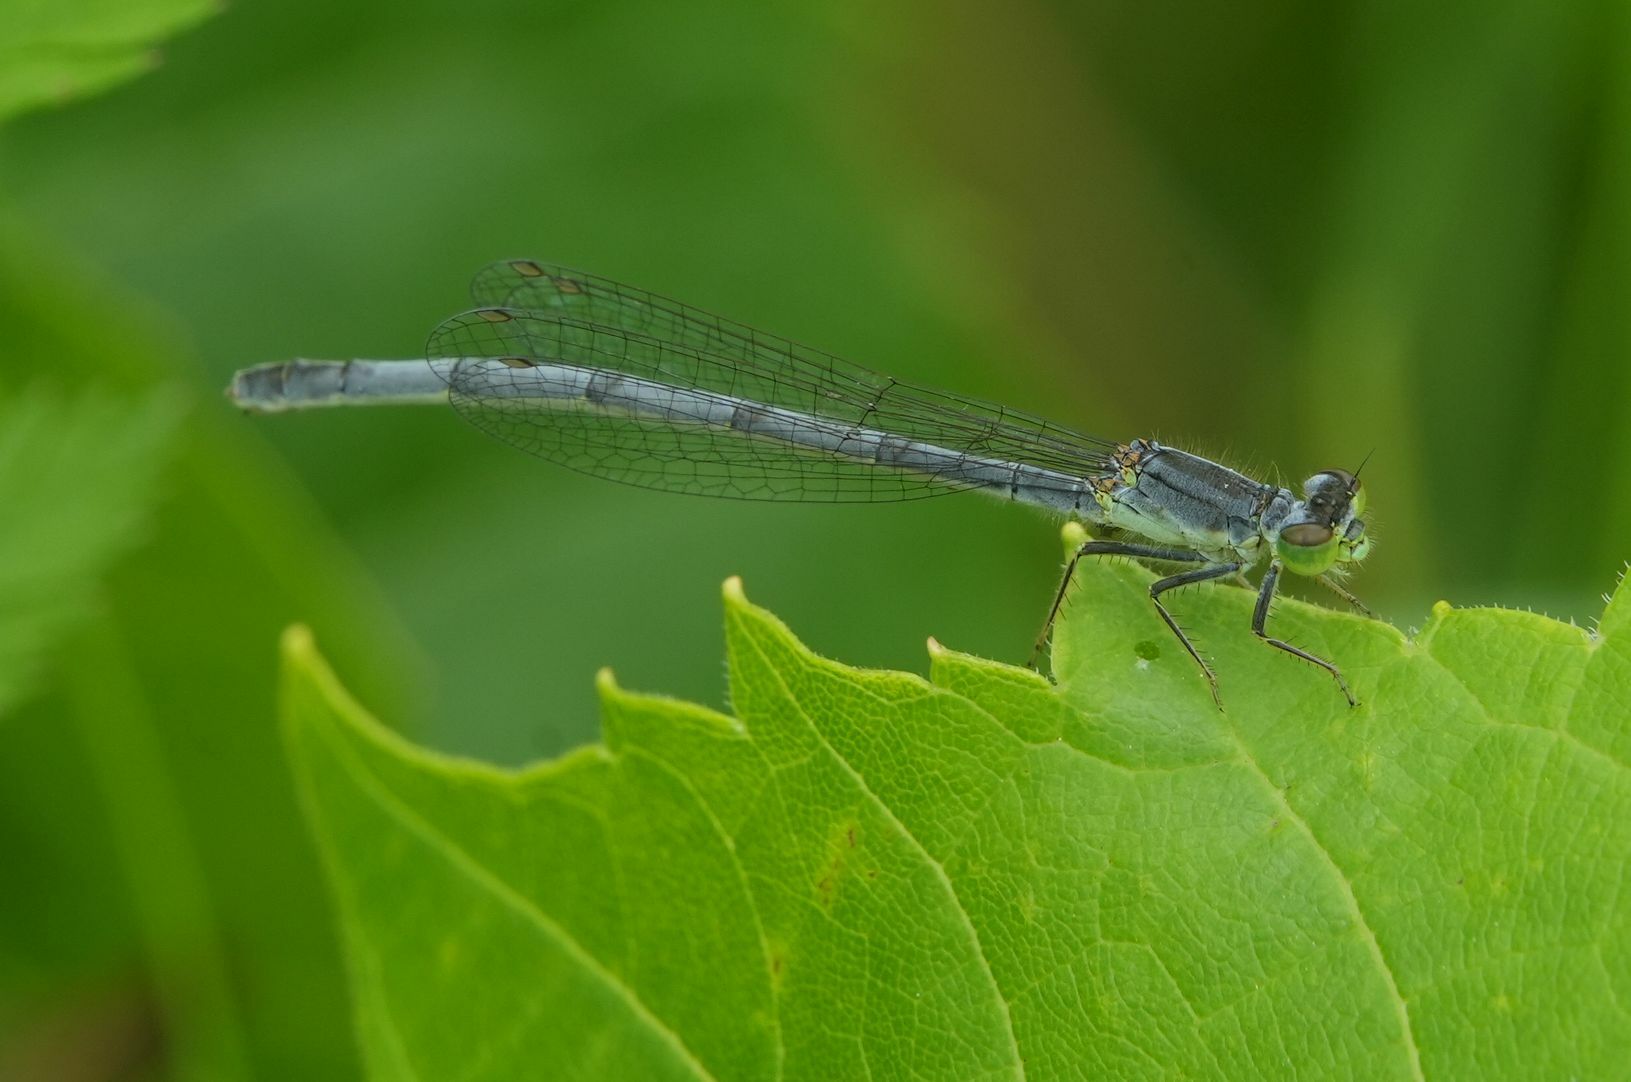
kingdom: Animalia
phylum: Arthropoda
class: Insecta
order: Odonata
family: Coenagrionidae
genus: Ischnura
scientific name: Ischnura verticalis
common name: Eastern forktail
